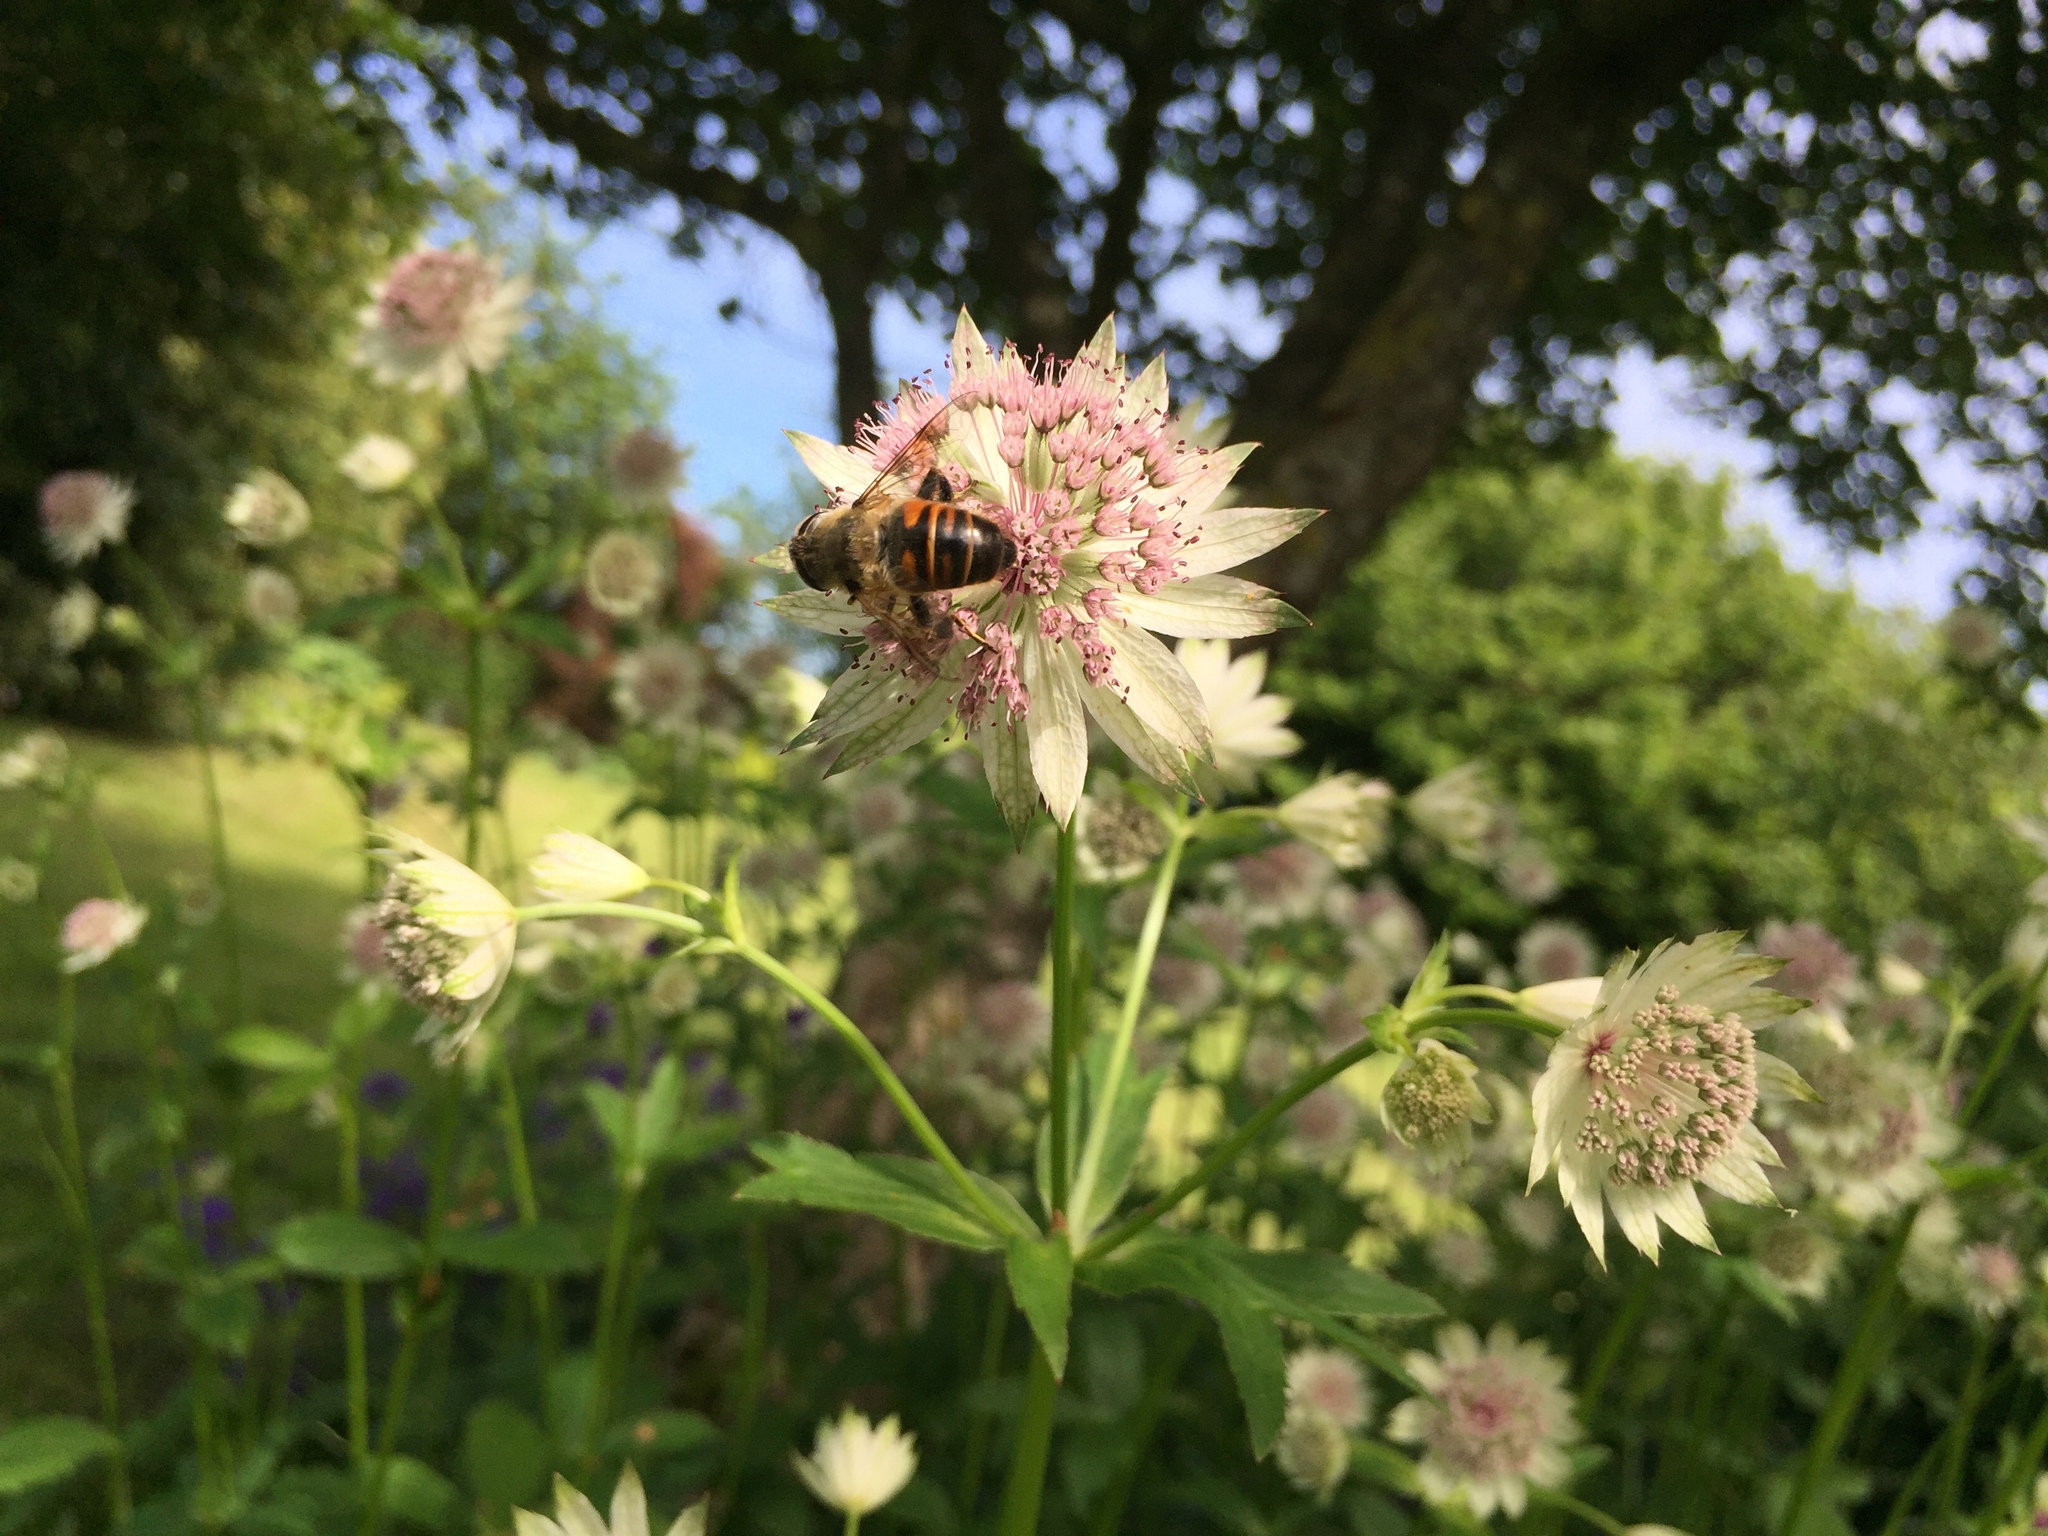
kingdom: Animalia
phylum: Arthropoda
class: Insecta
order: Diptera
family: Syrphidae
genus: Eristalis
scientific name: Eristalis tenax
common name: Drone fly
